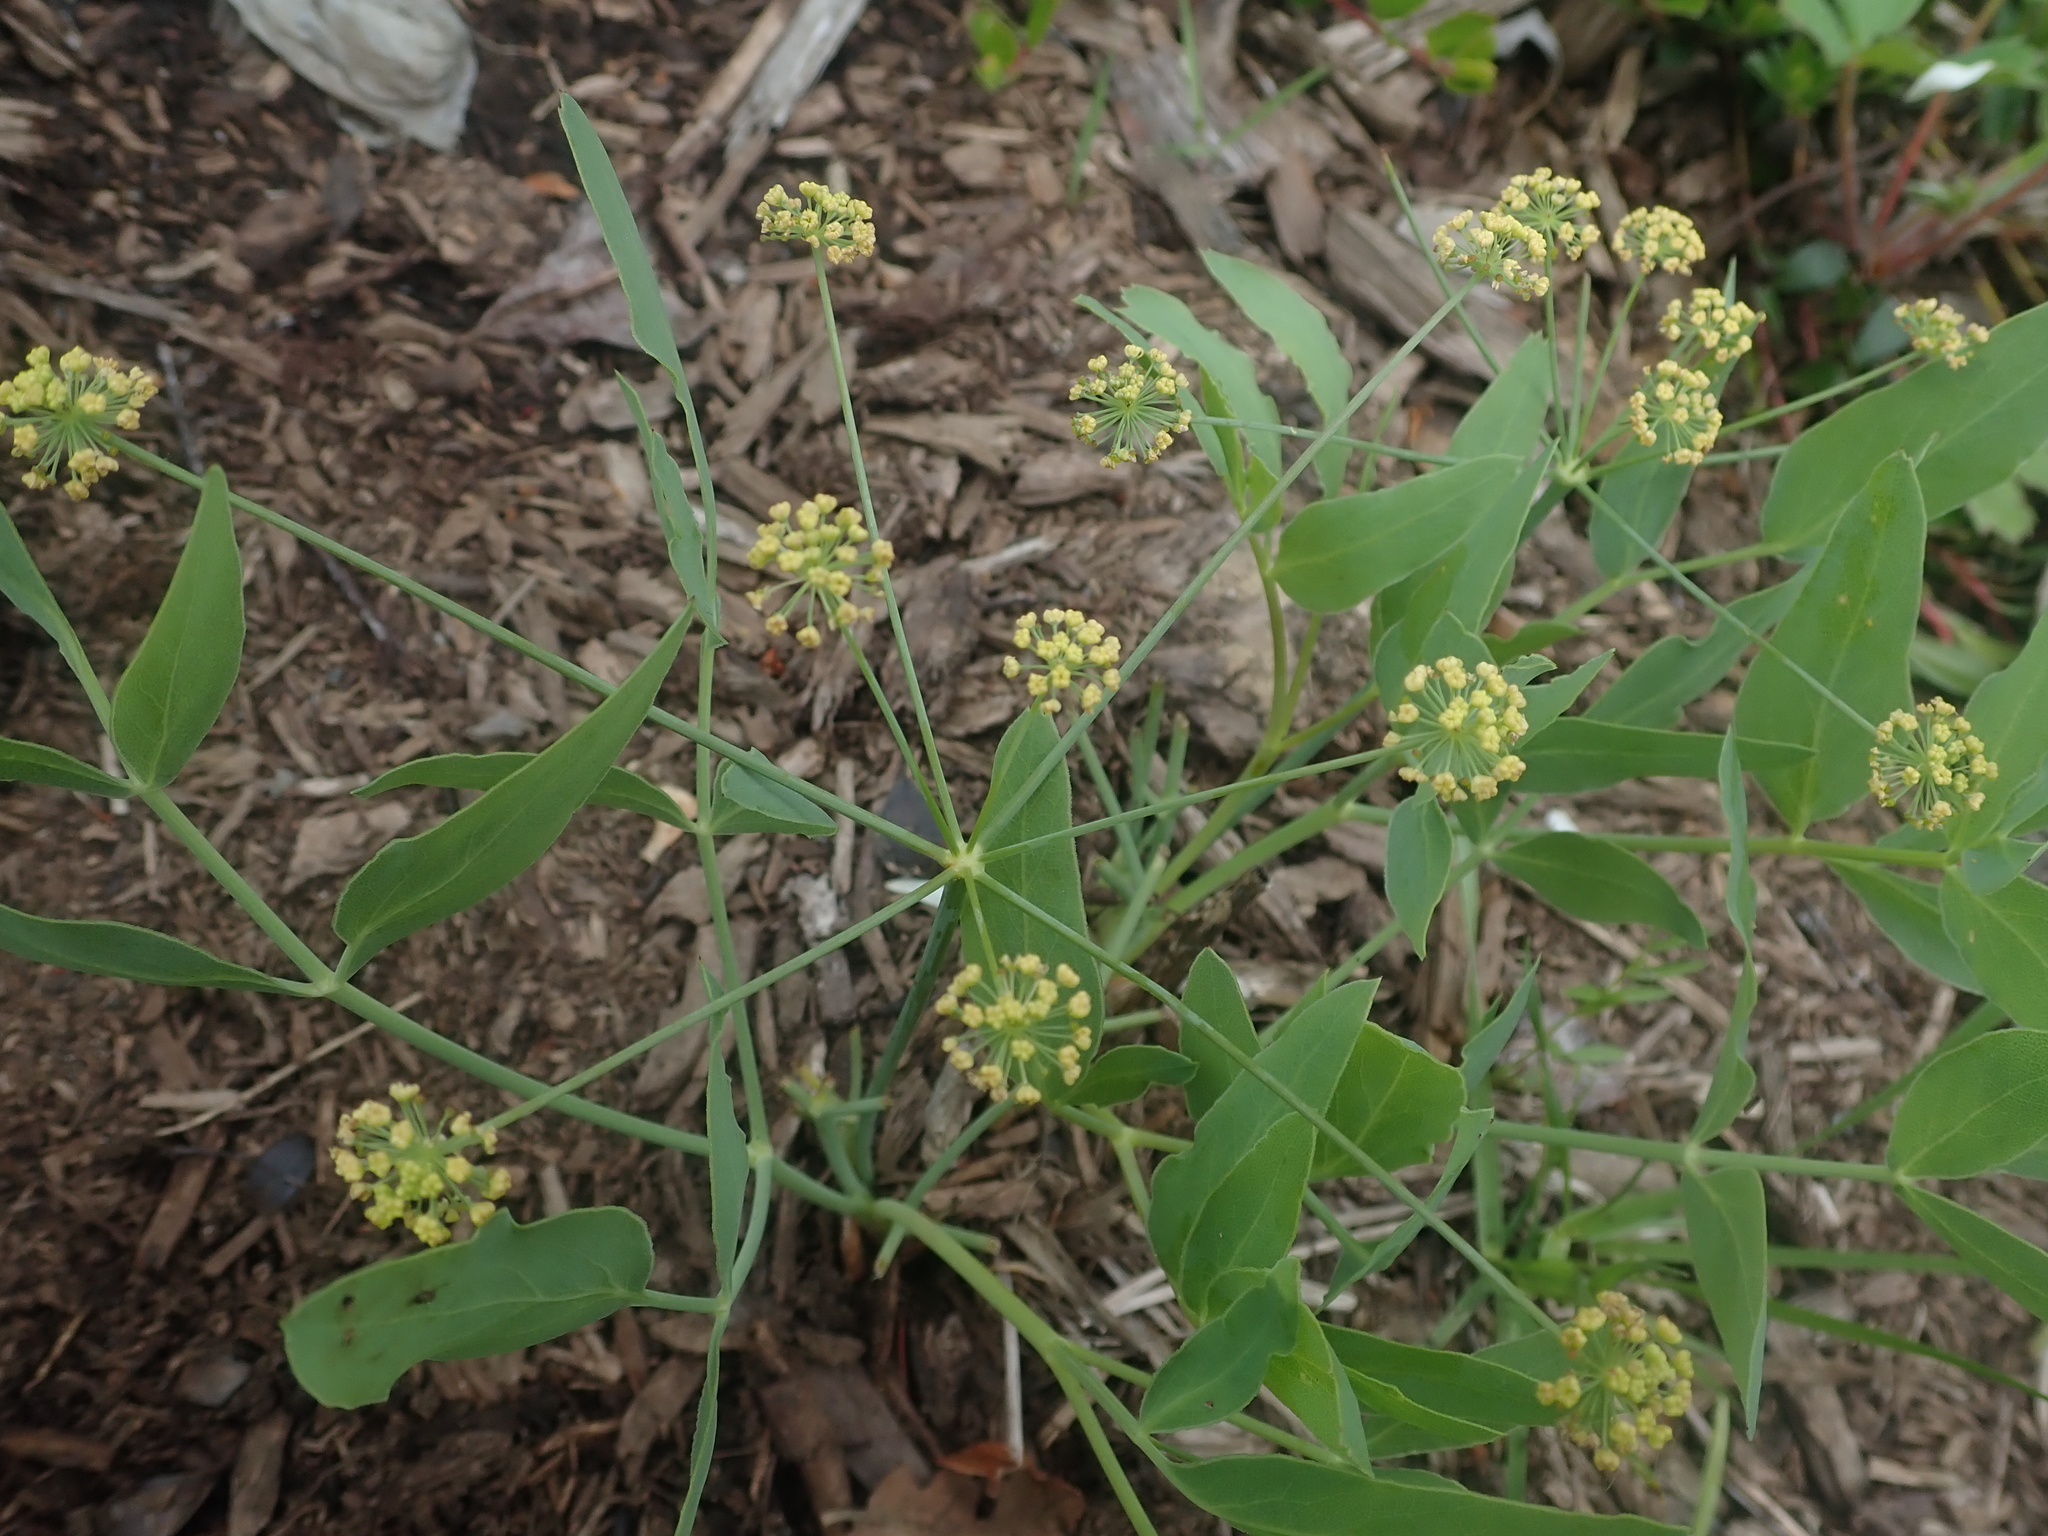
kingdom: Plantae
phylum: Tracheophyta
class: Magnoliopsida
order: Apiales
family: Apiaceae
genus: Lomatium
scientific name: Lomatium nudicaule
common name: Pestle lomatium
